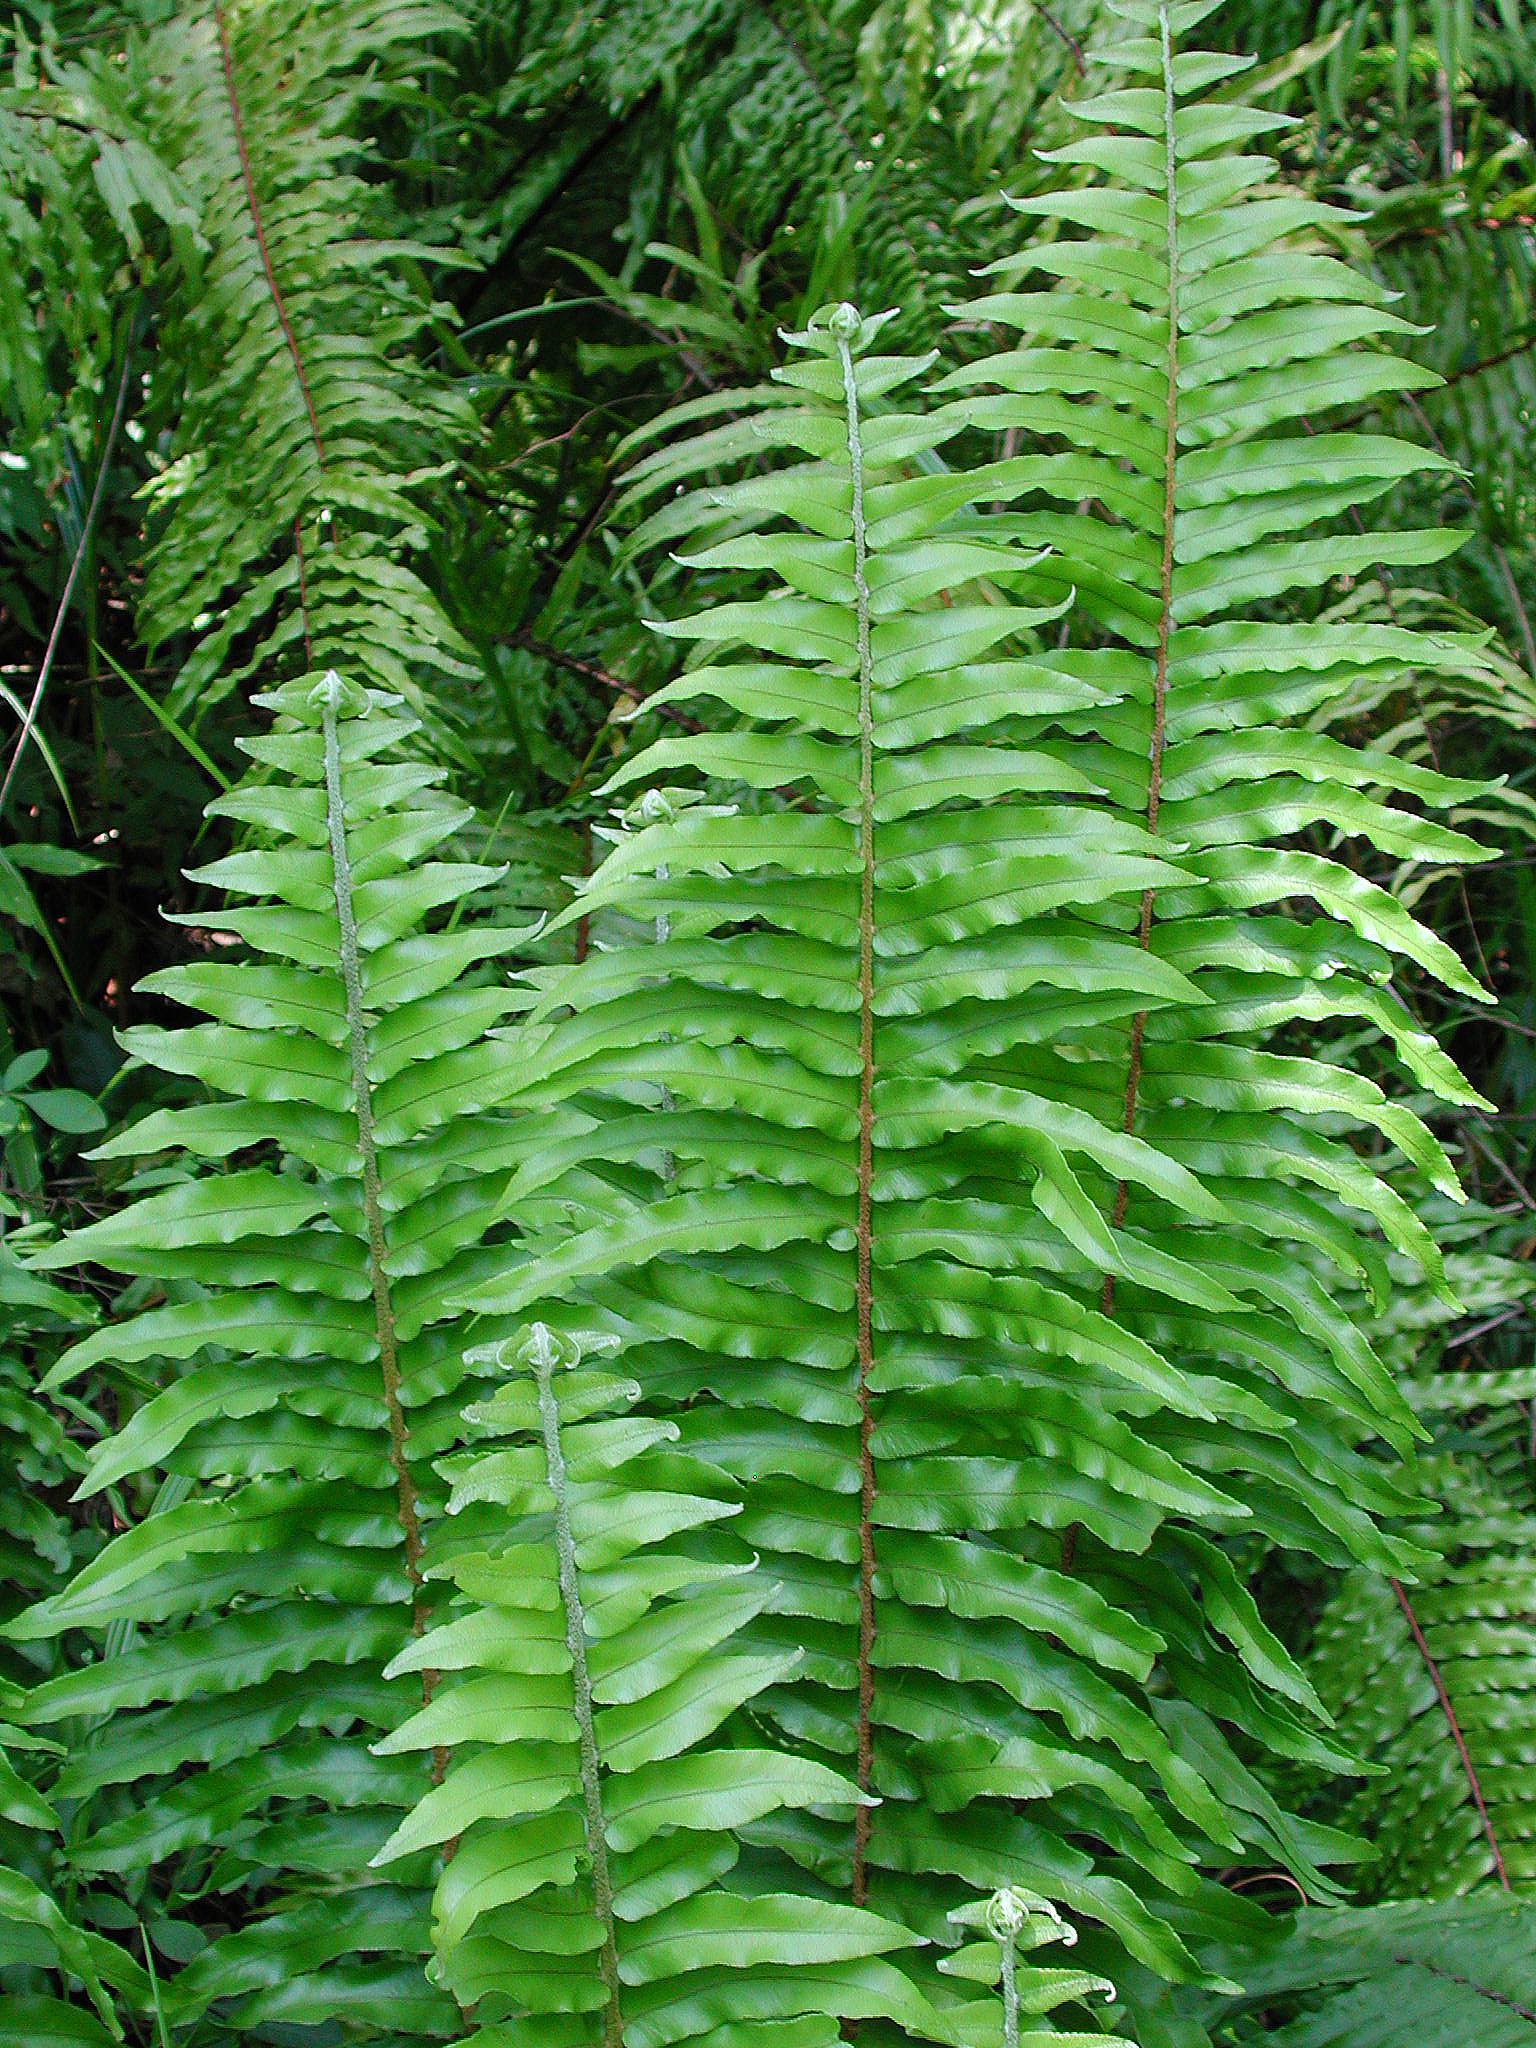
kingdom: Plantae
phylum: Tracheophyta
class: Polypodiopsida
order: Polypodiales
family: Nephrolepidaceae
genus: Nephrolepis
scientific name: Nephrolepis biserrata
